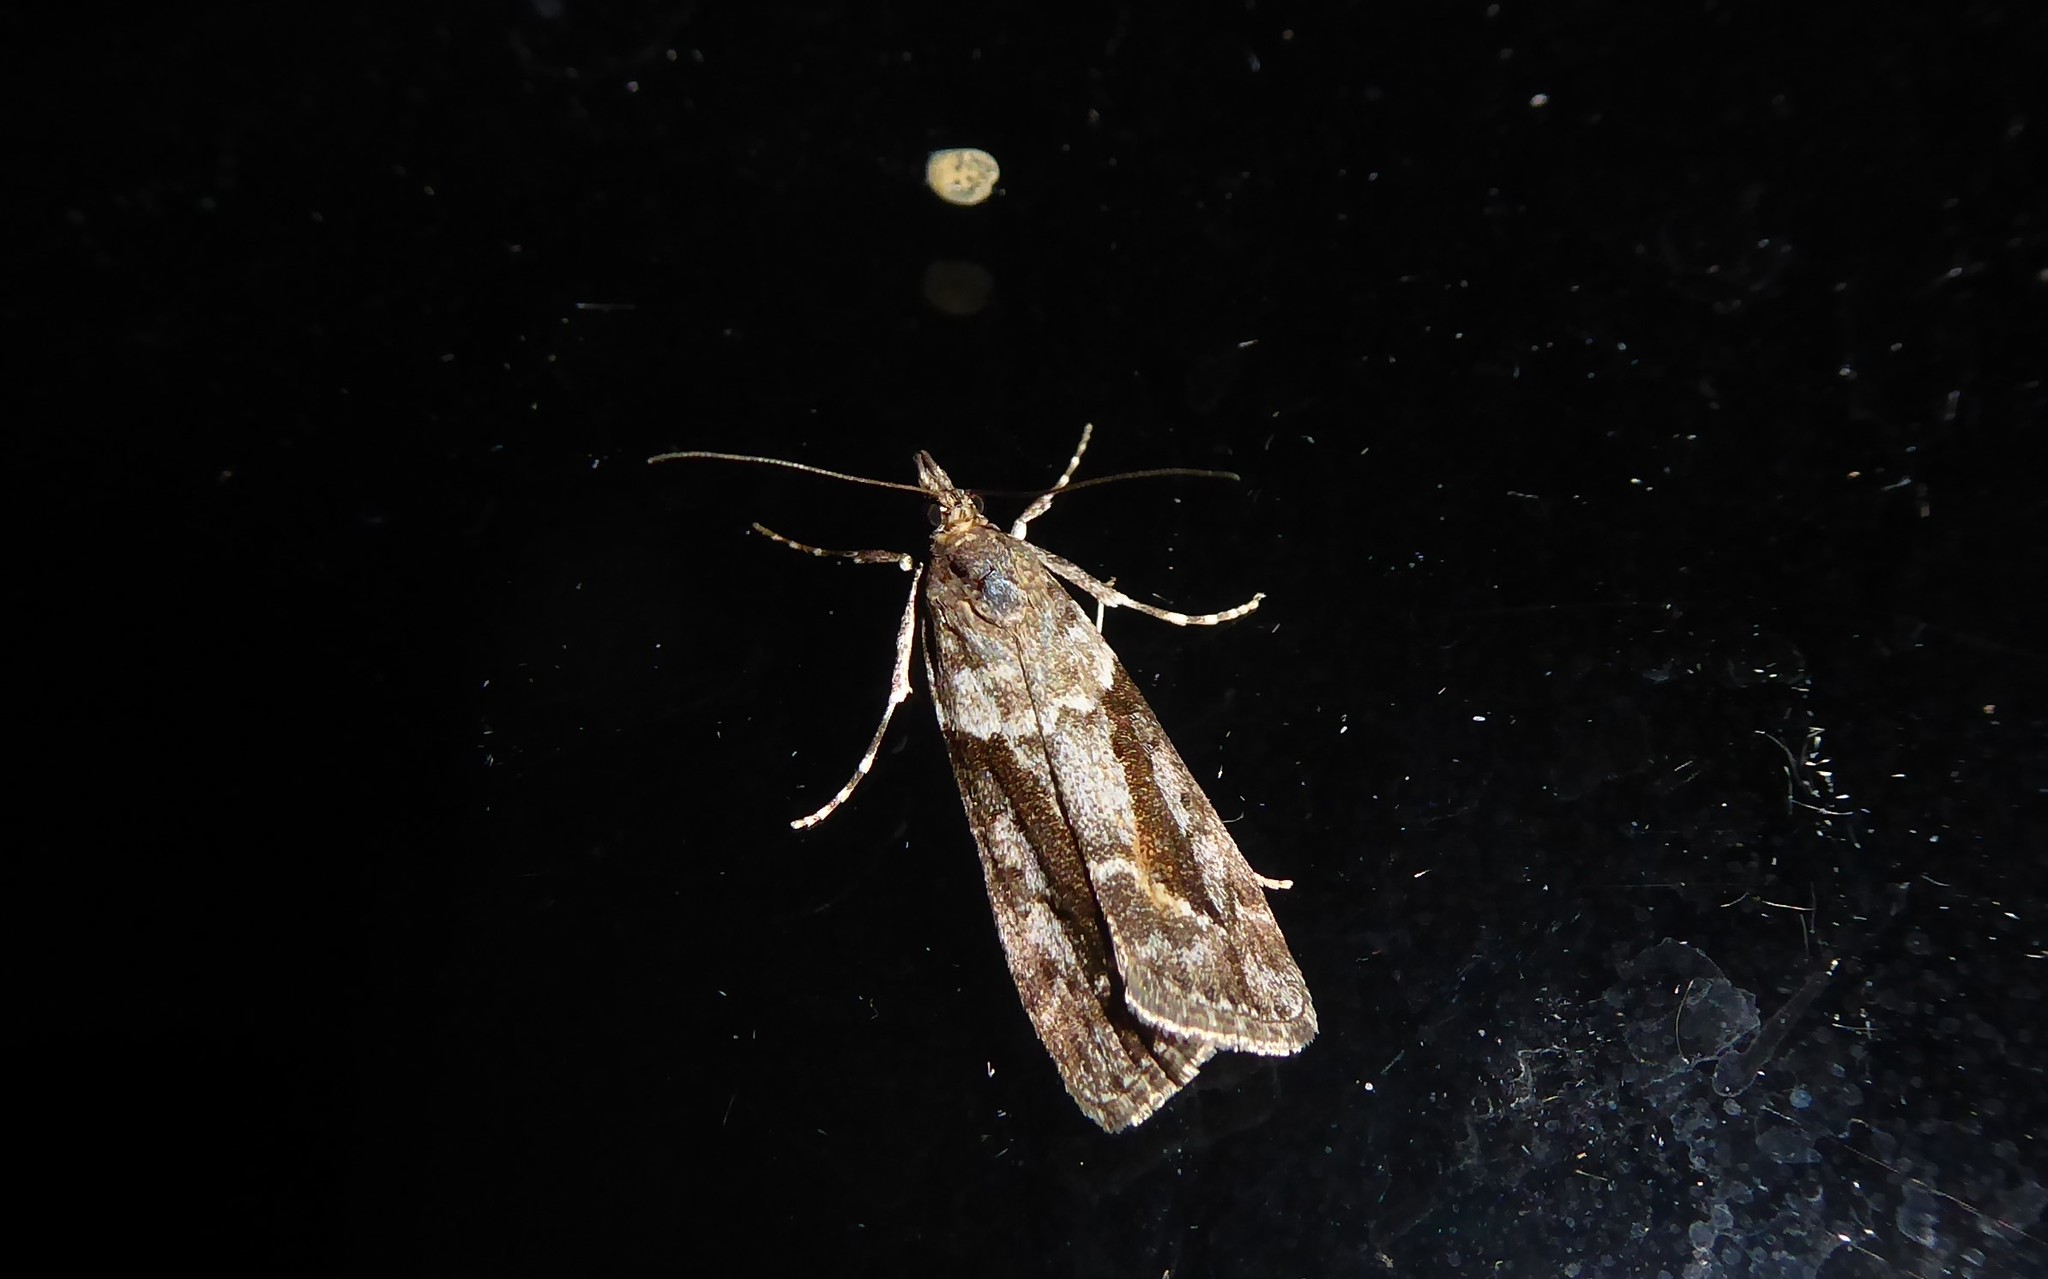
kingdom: Animalia
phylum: Arthropoda
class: Insecta
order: Lepidoptera
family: Crambidae
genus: Eudonia
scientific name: Eudonia submarginalis
